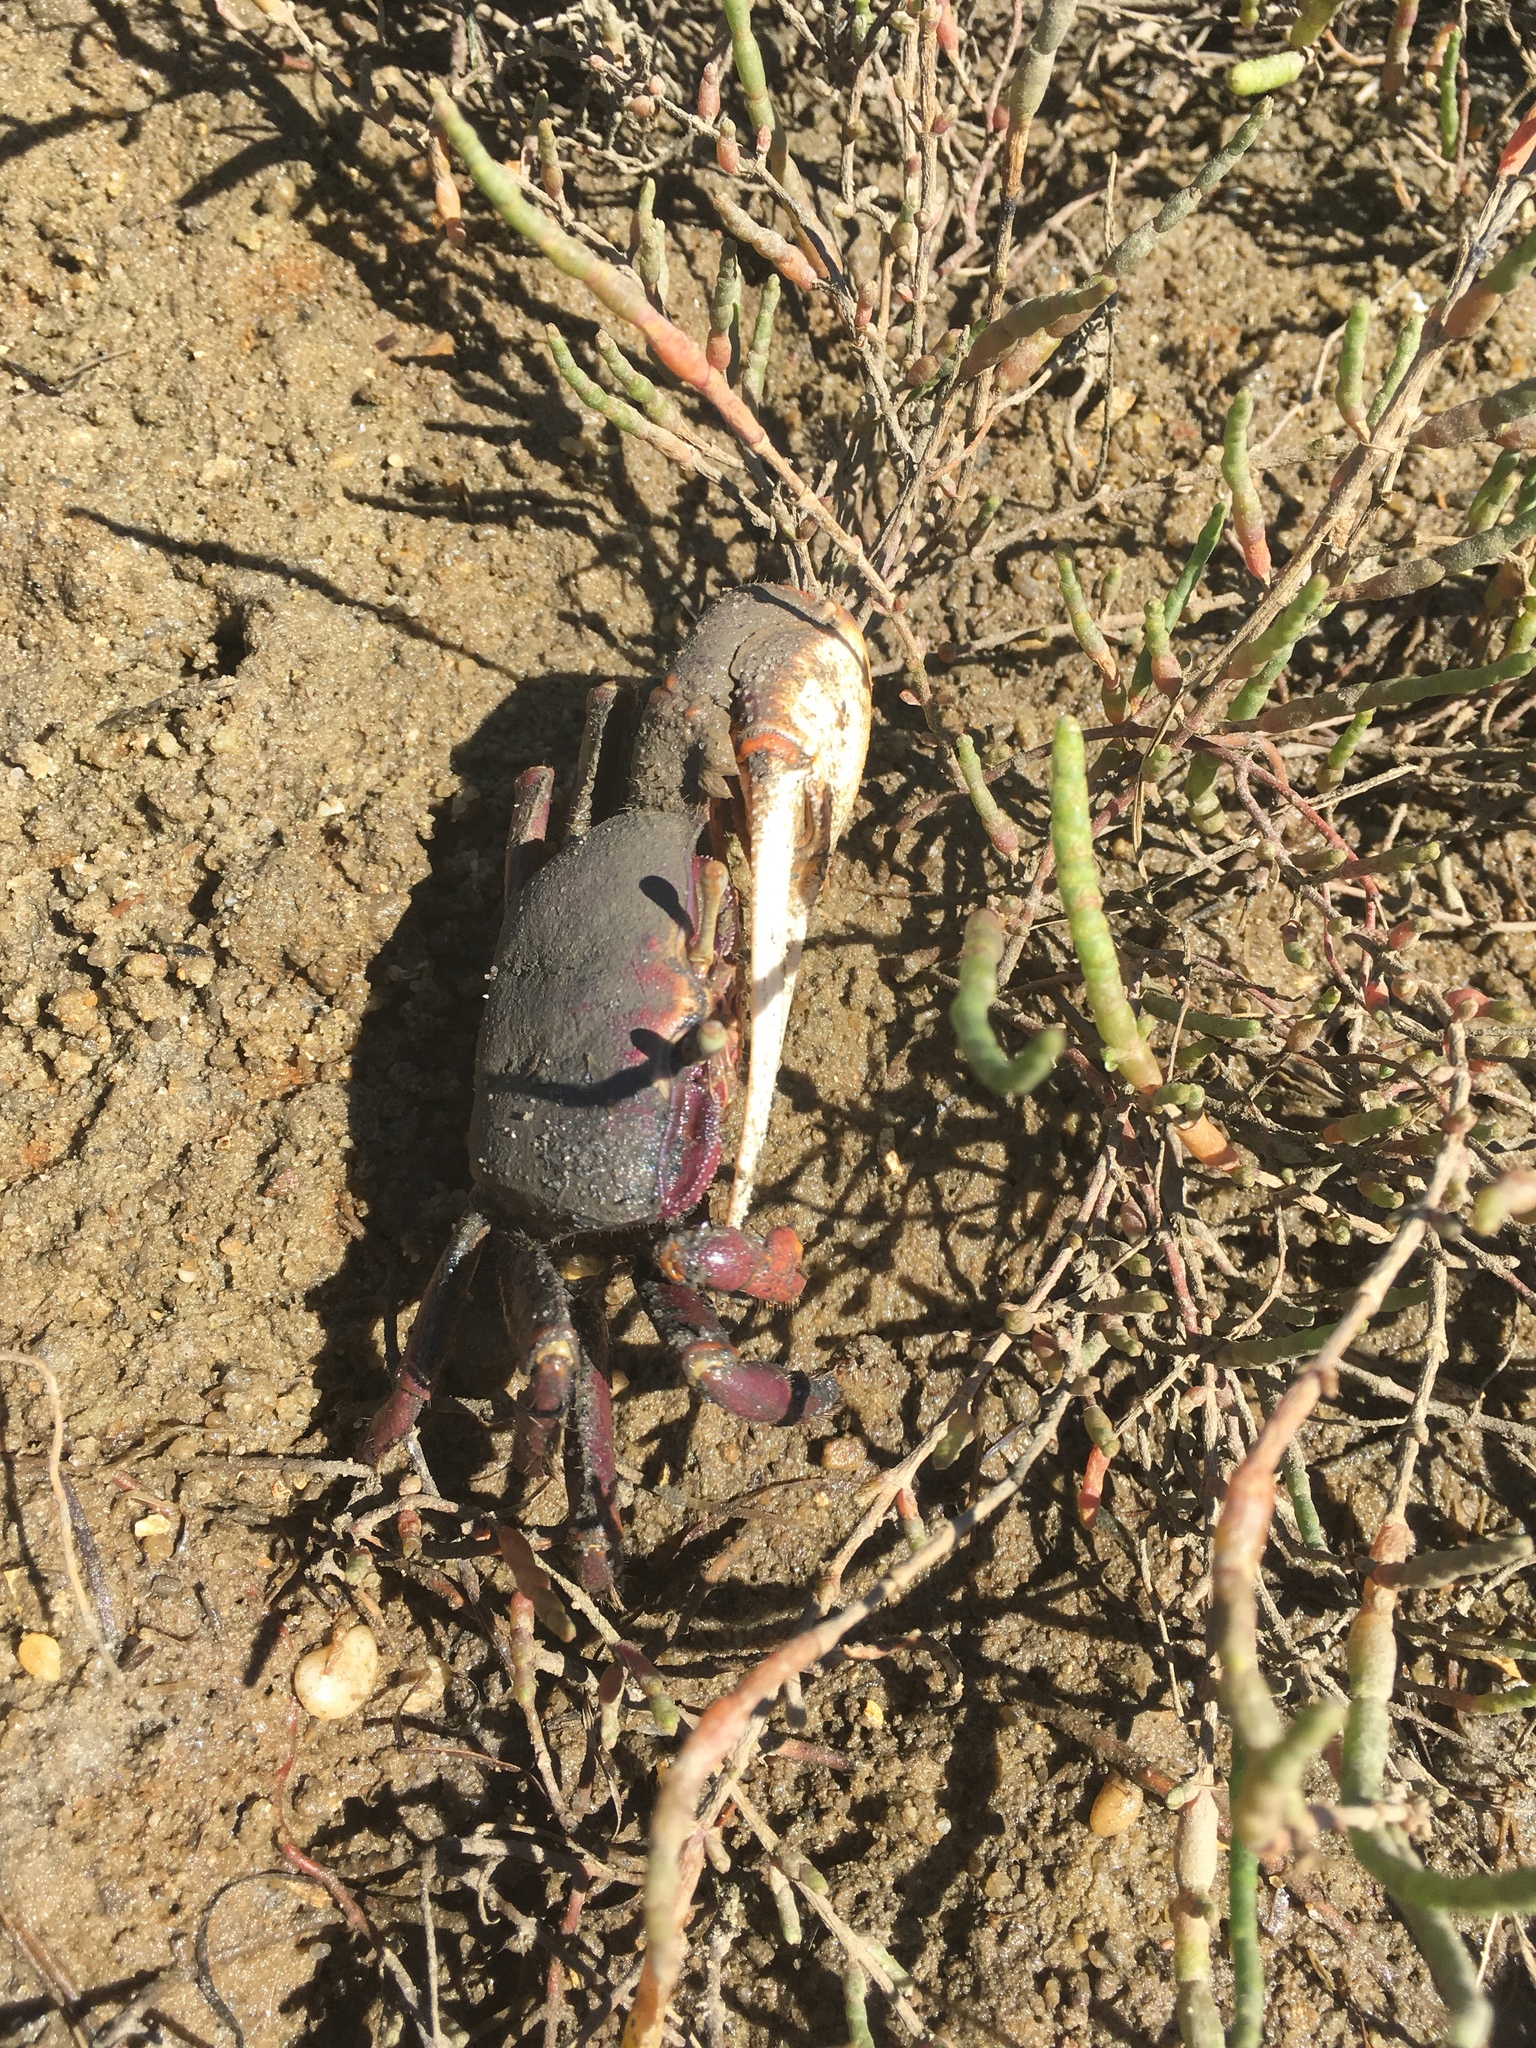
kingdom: Animalia
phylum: Arthropoda
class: Malacostraca
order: Decapoda
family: Ocypodidae
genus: Afruca
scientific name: Afruca tangeri
